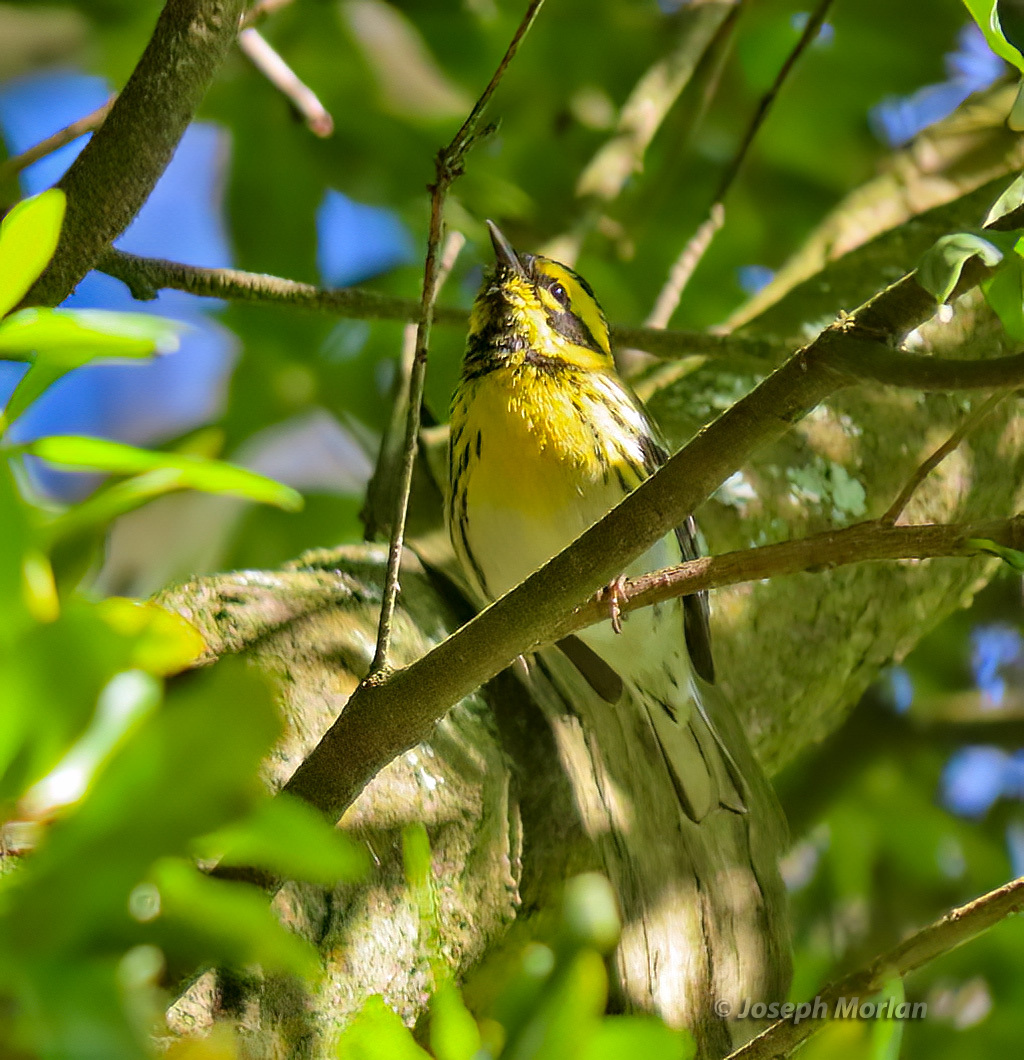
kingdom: Animalia
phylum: Chordata
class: Aves
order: Passeriformes
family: Parulidae
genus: Setophaga
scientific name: Setophaga townsendi
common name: Townsend's warbler
